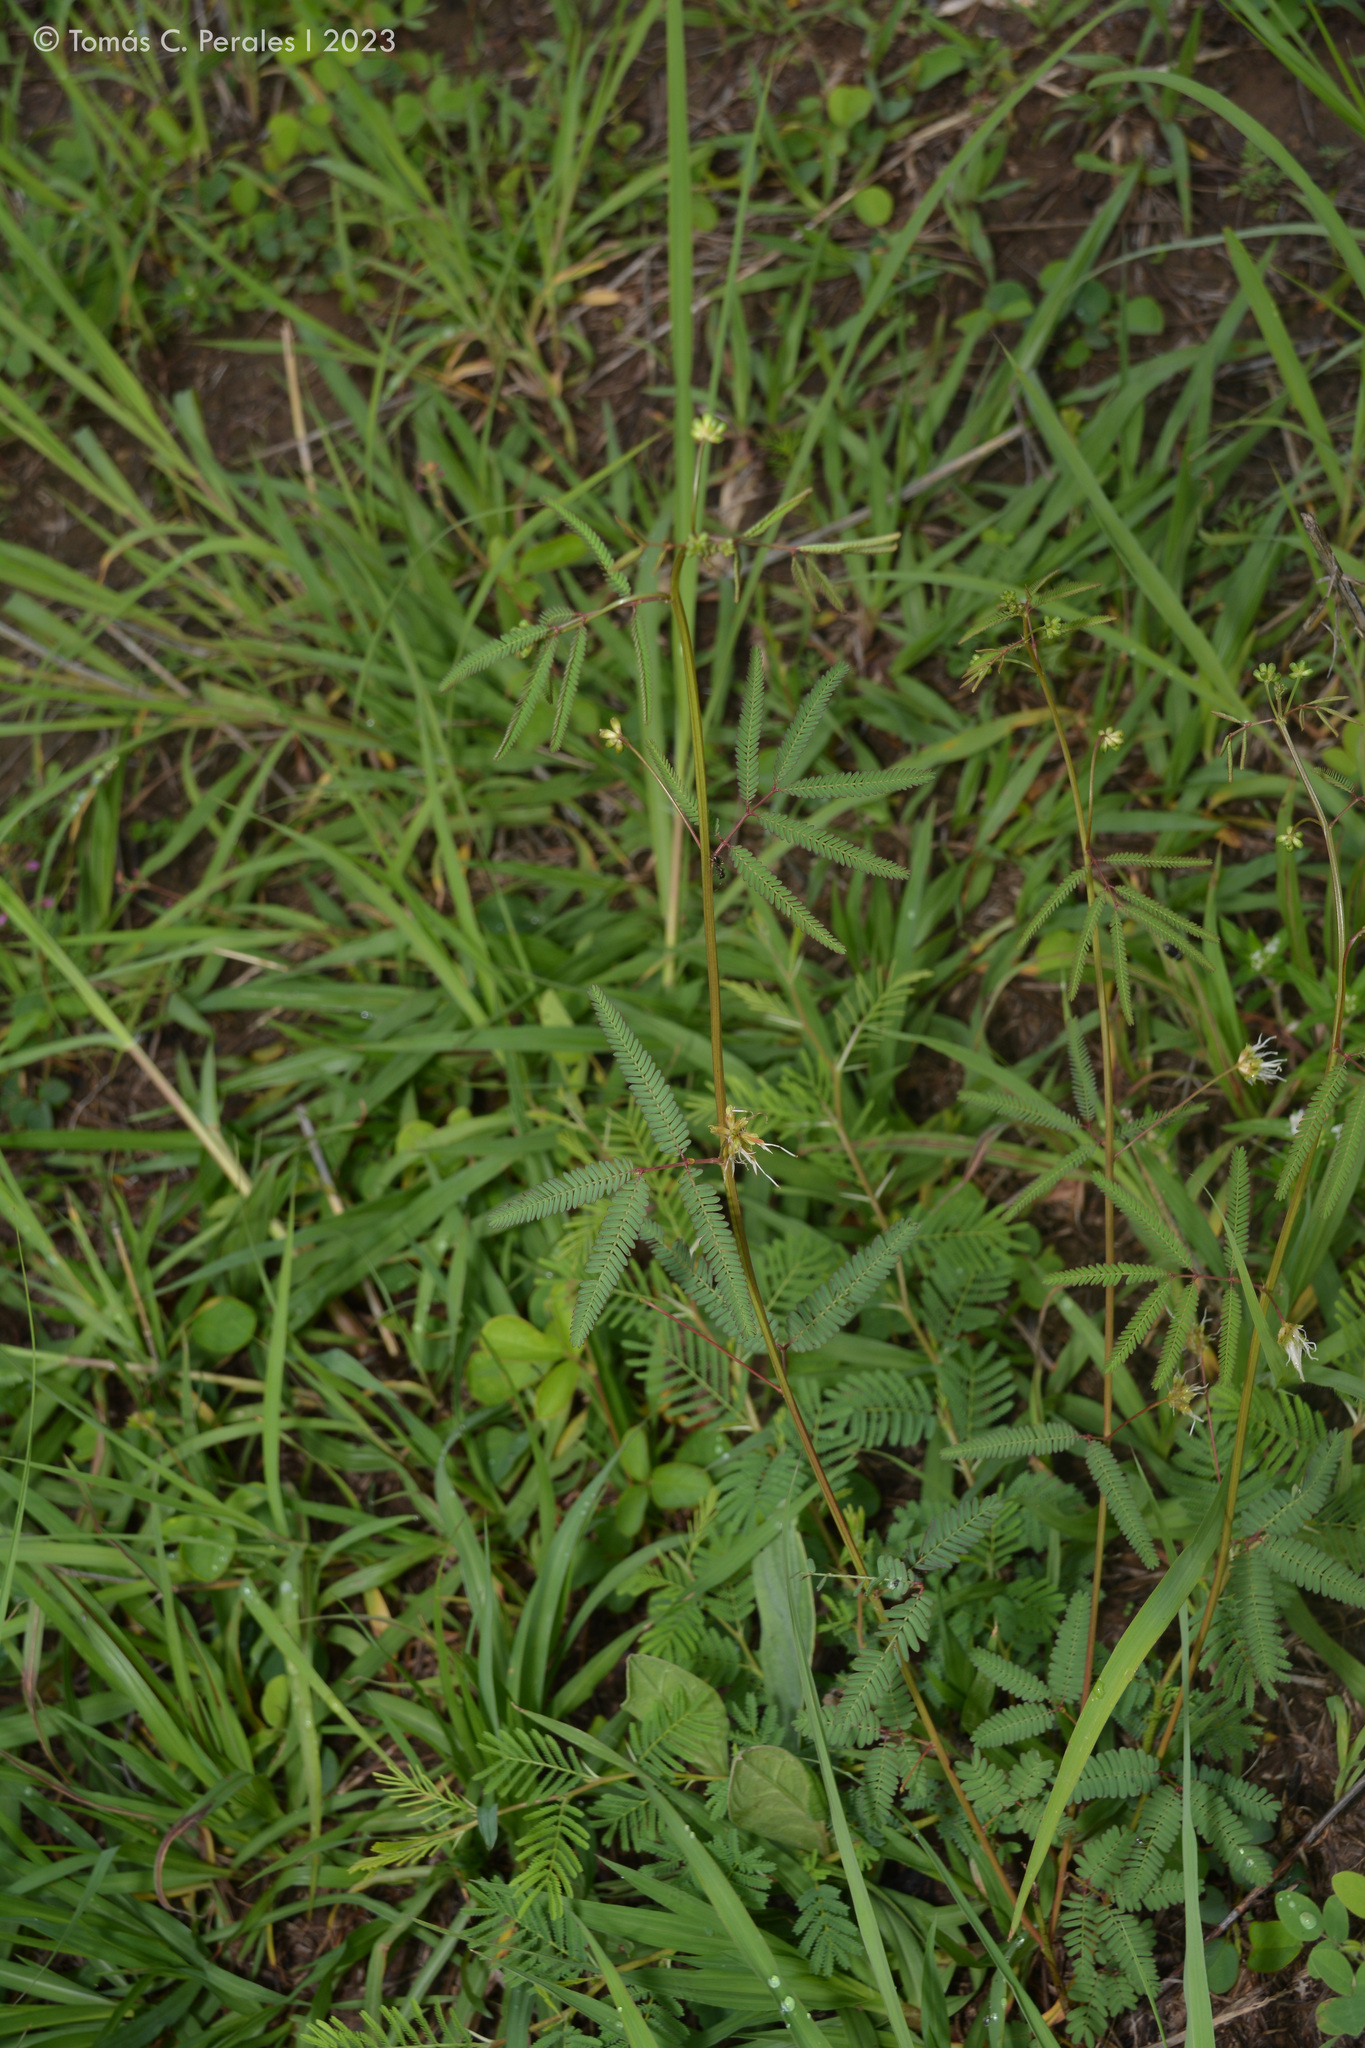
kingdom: Plantae
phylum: Tracheophyta
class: Magnoliopsida
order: Fabales
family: Fabaceae
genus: Desmanthus
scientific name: Desmanthus virgatus
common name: Wild tantan
